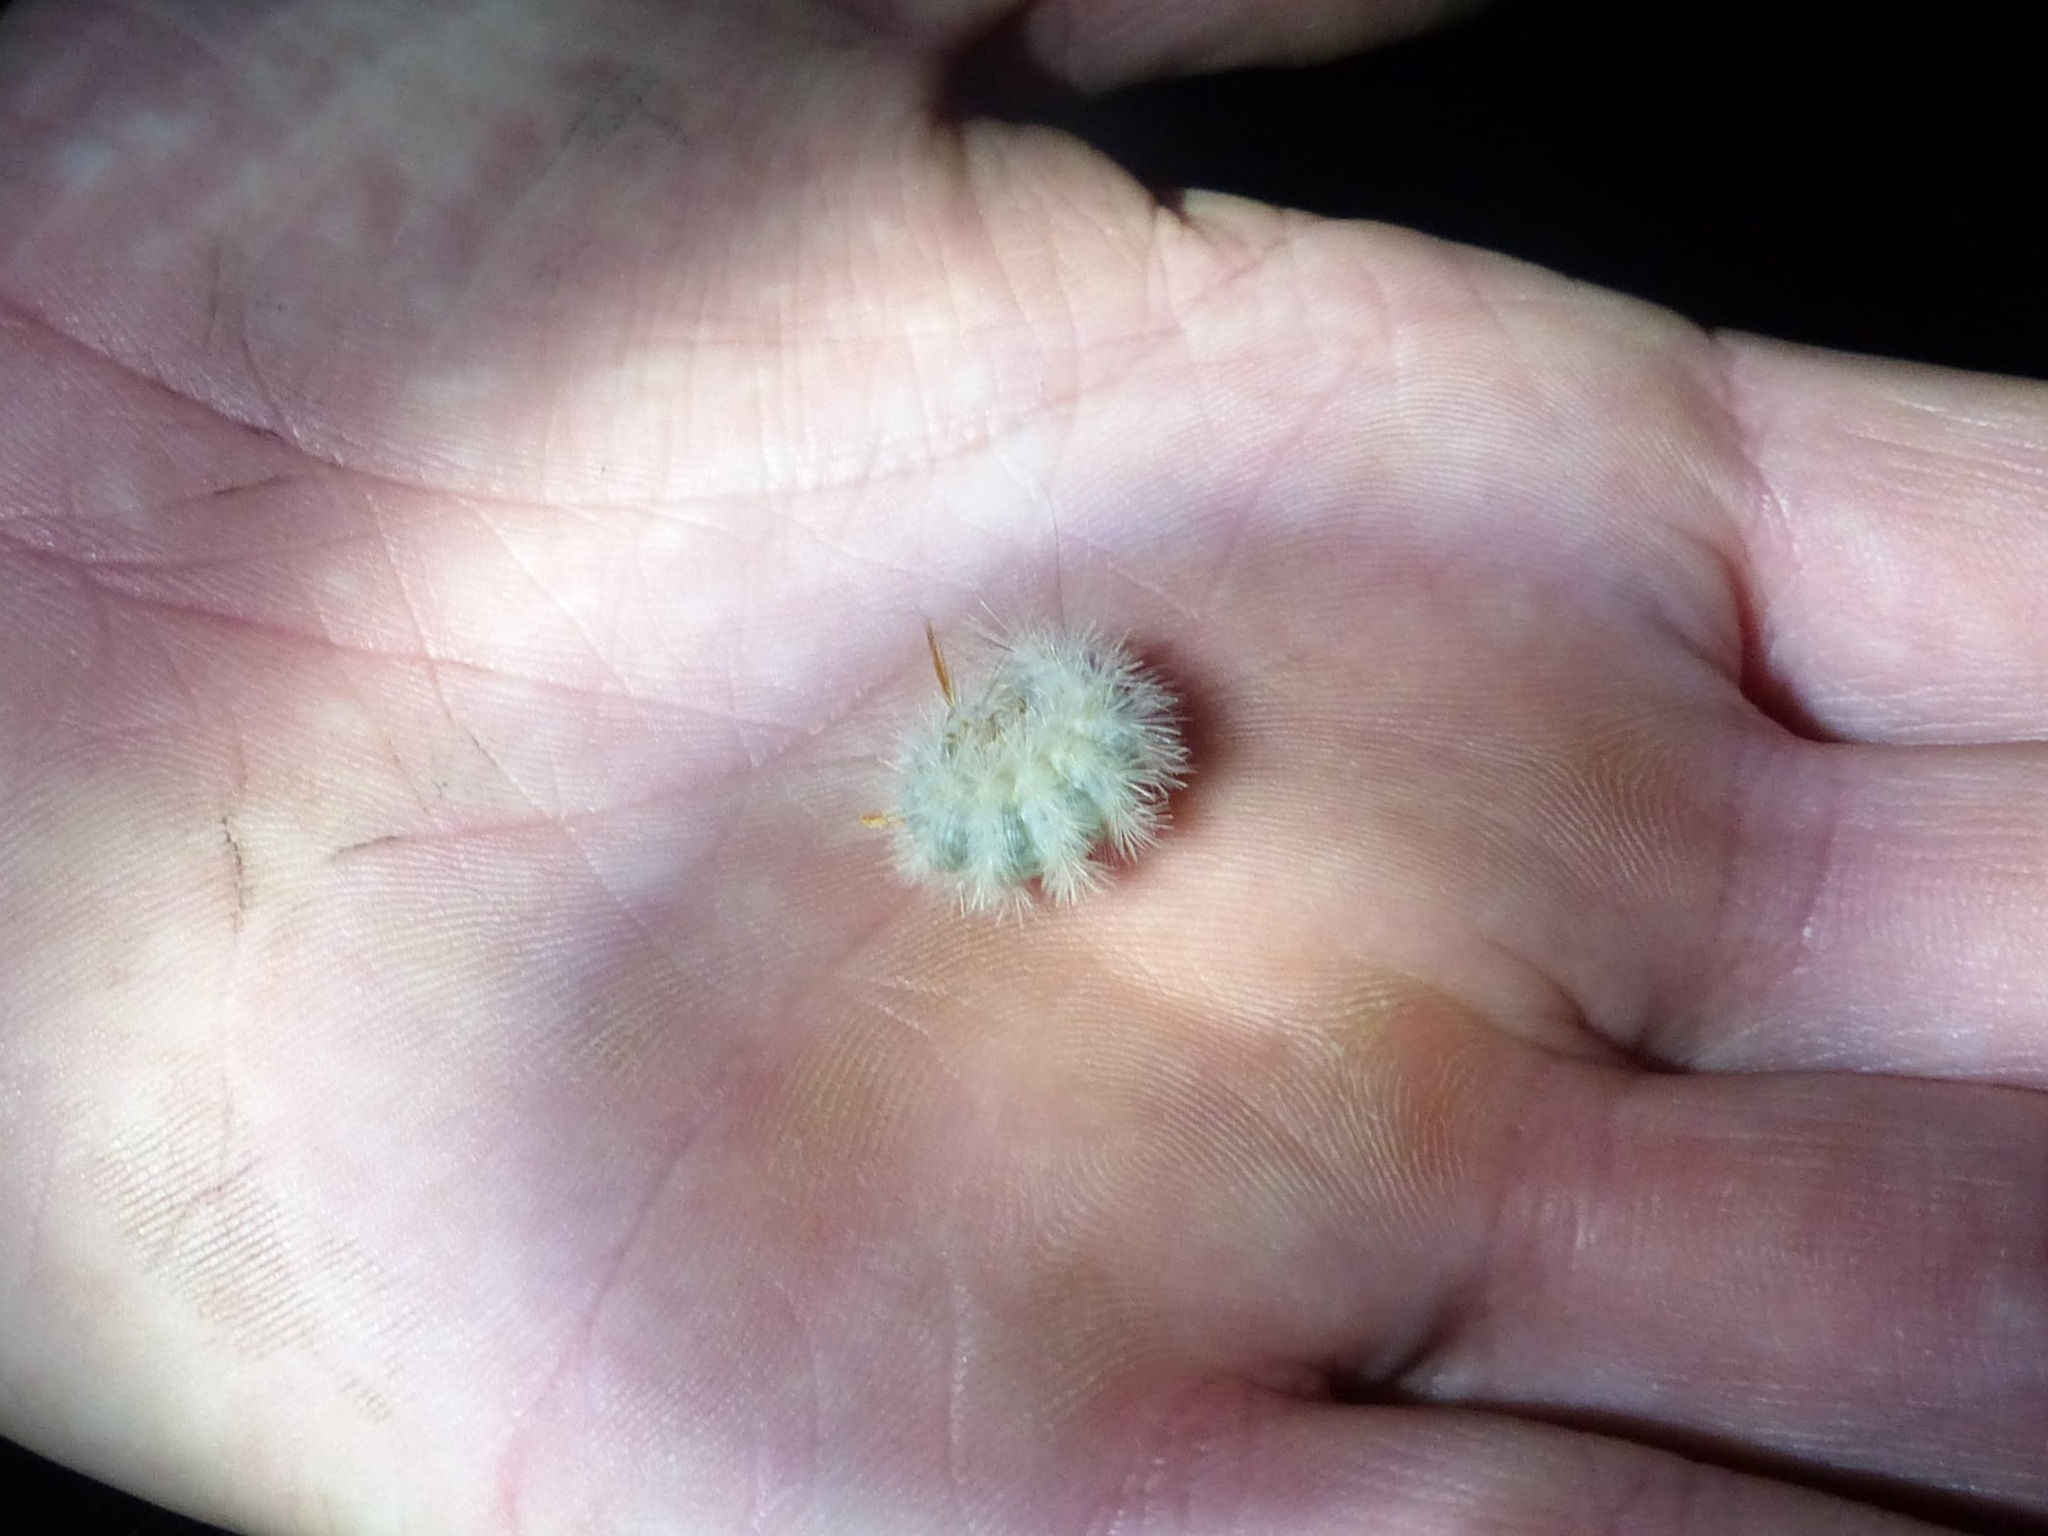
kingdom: Animalia
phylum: Arthropoda
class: Insecta
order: Lepidoptera
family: Noctuidae
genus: Colocasia
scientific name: Colocasia propinquilinea
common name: Close-banded demas
